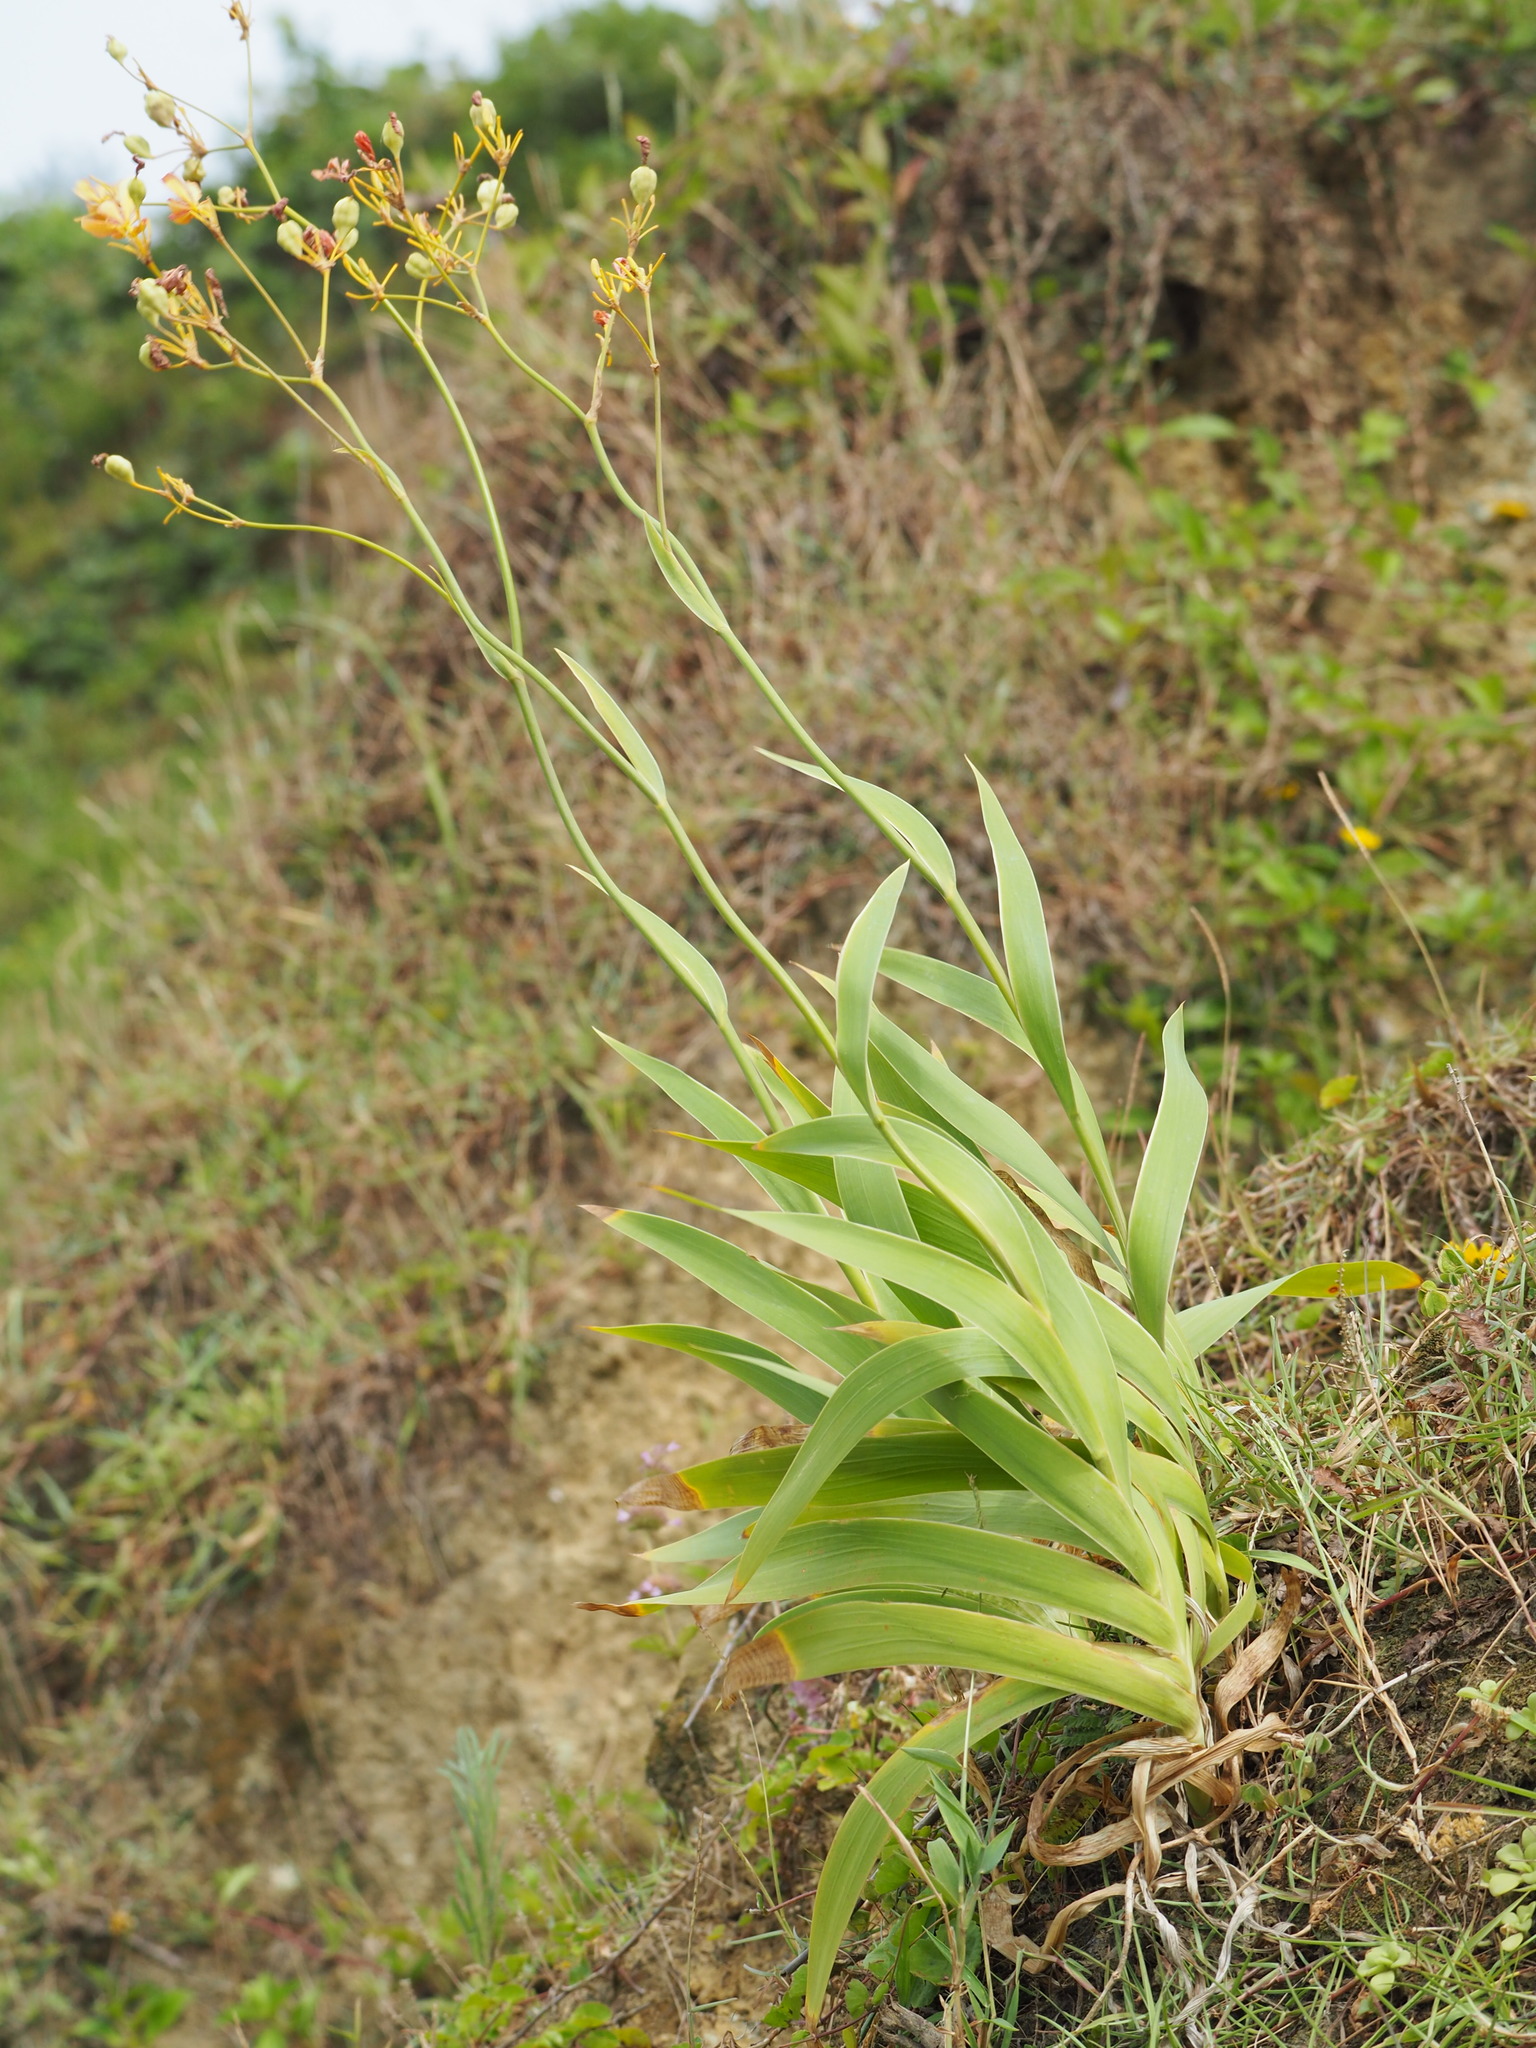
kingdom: Plantae
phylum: Tracheophyta
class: Liliopsida
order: Asparagales
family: Iridaceae
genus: Iris
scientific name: Iris domestica
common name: Belamcanda
